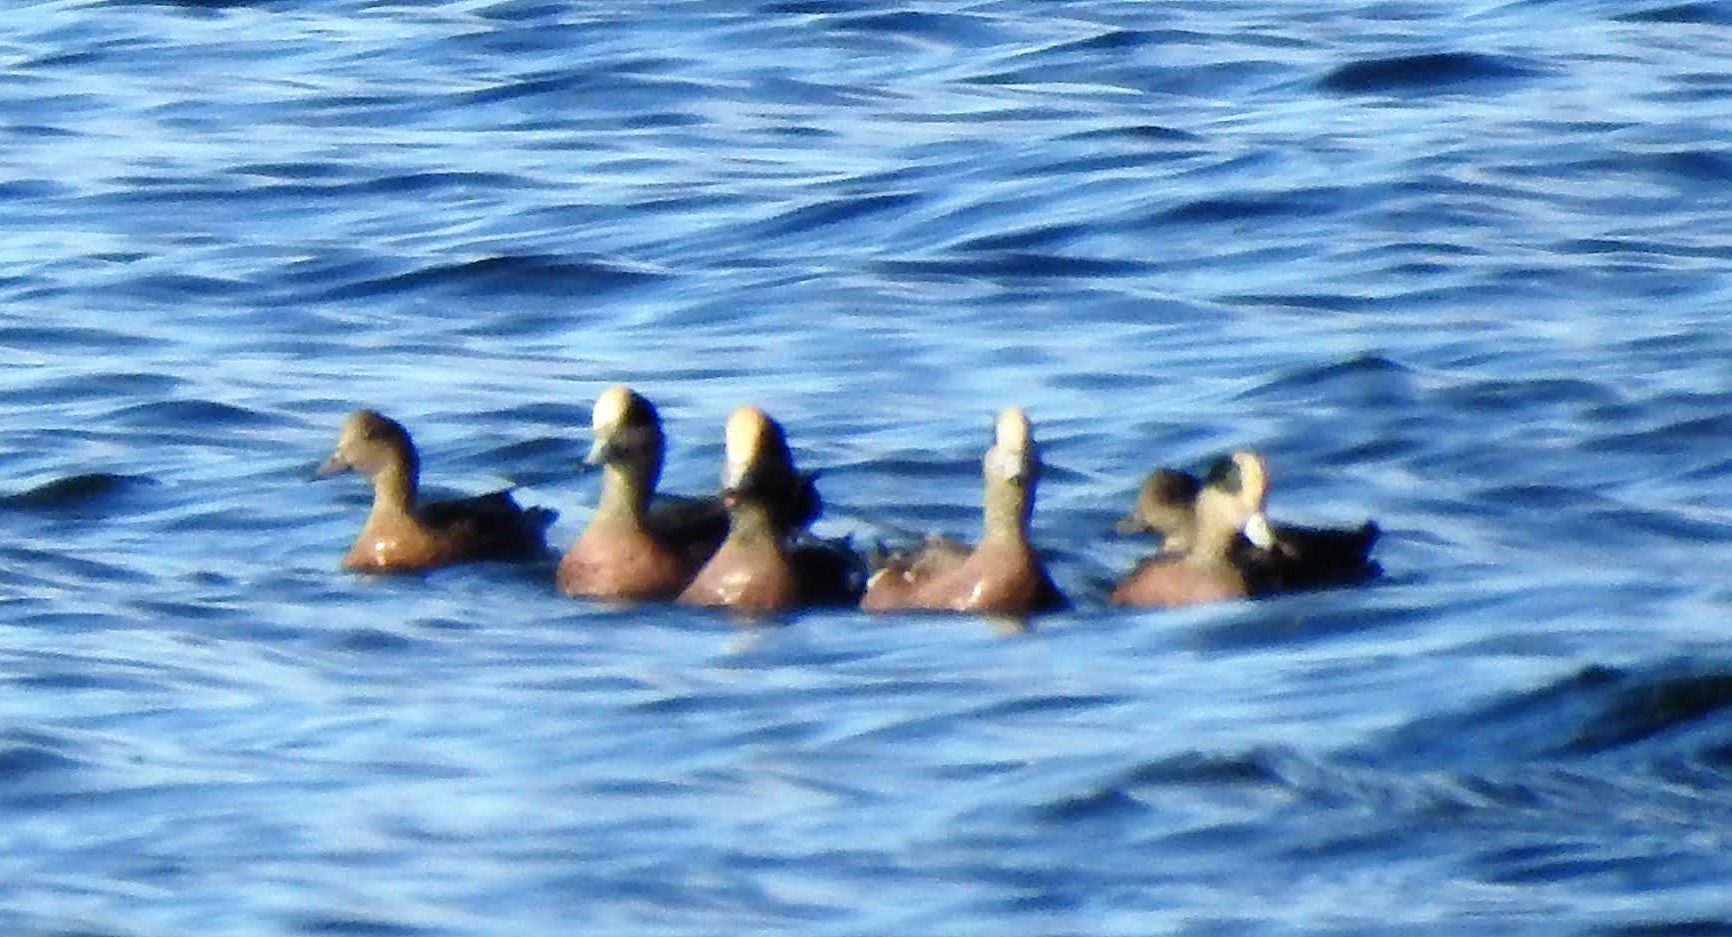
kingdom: Animalia
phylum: Chordata
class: Aves
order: Anseriformes
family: Anatidae
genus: Mareca
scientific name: Mareca americana
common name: American wigeon
